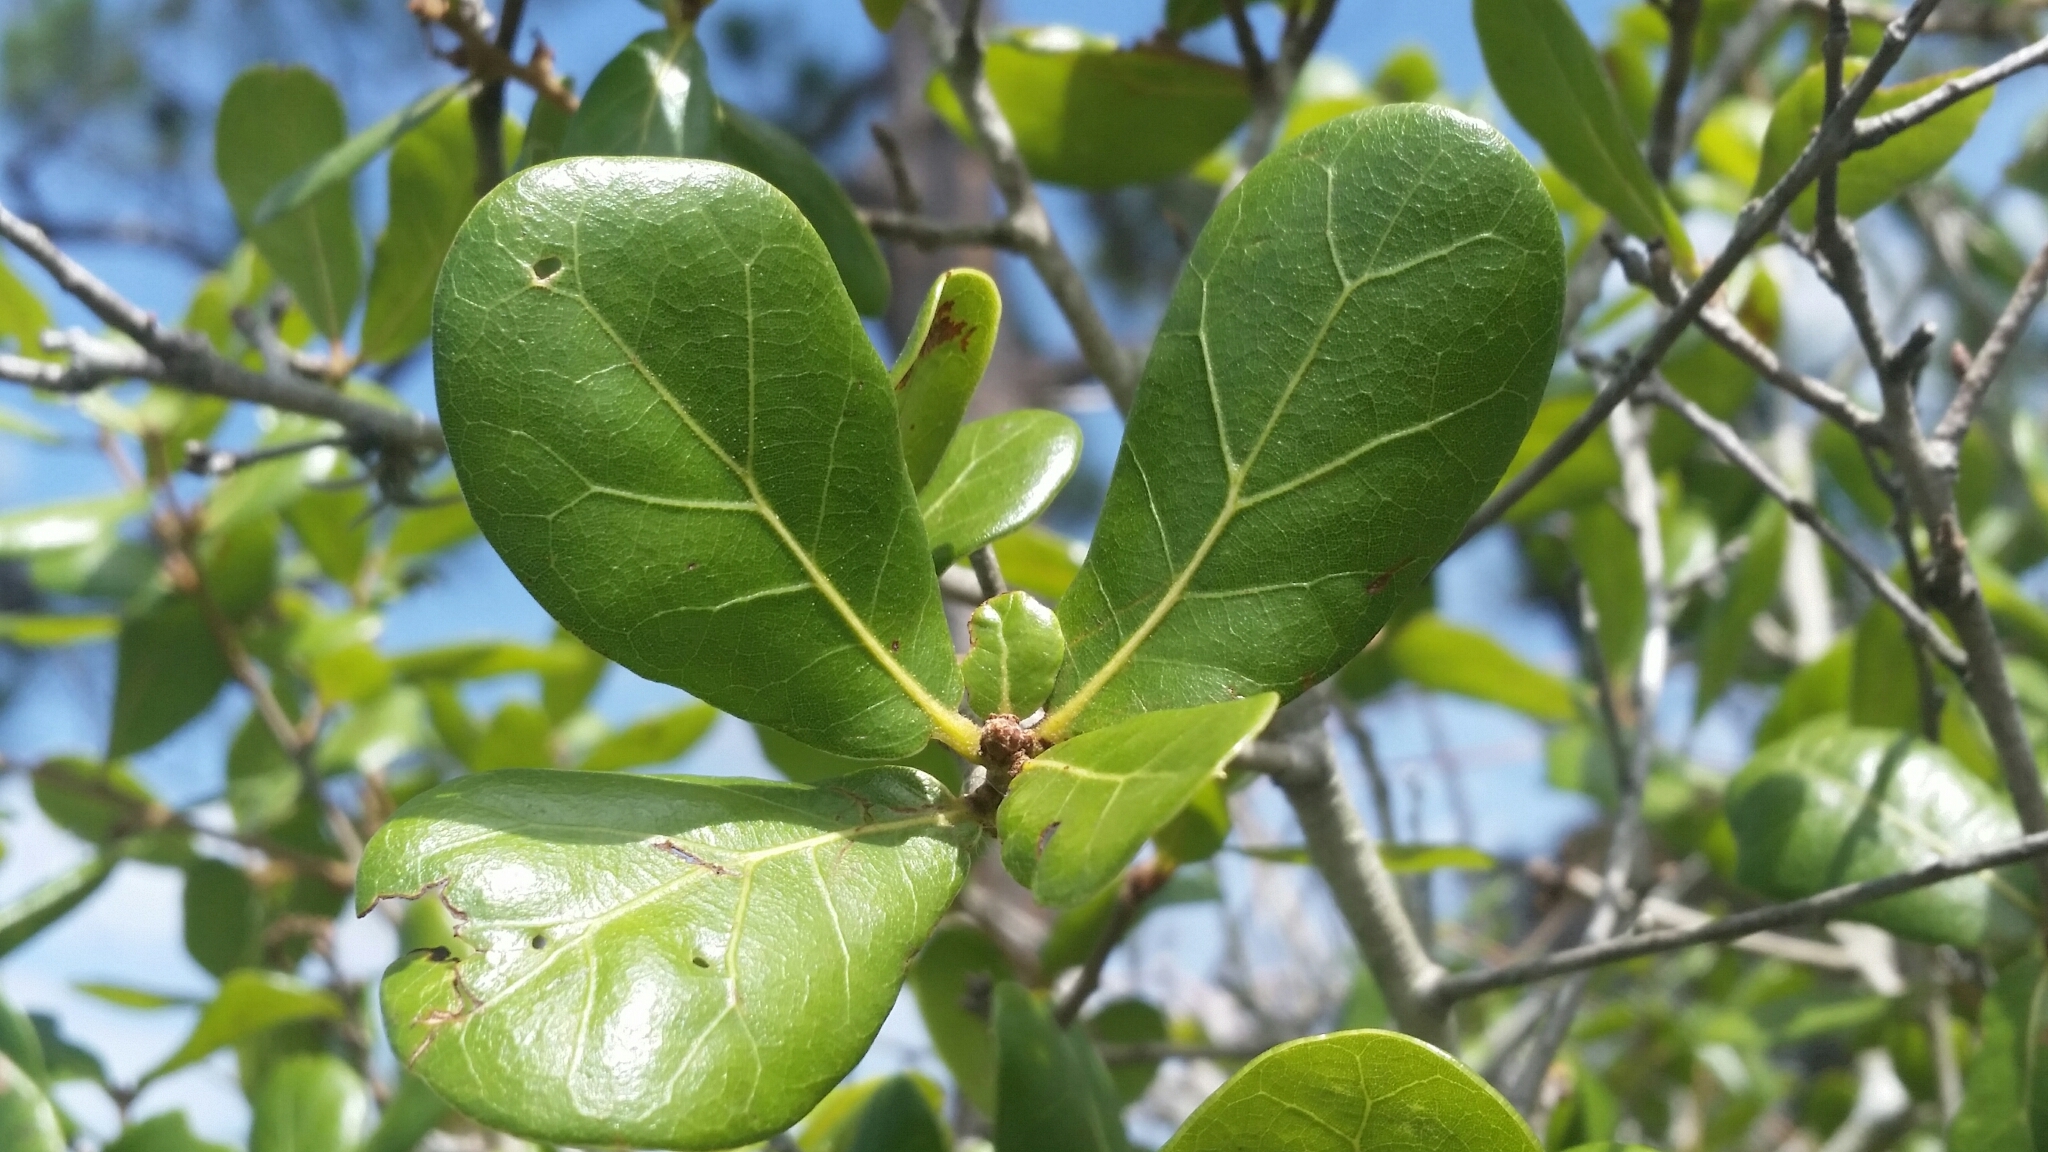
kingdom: Plantae
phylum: Tracheophyta
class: Magnoliopsida
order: Fagales
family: Fagaceae
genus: Quercus
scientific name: Quercus myrtifolia
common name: Myrtle oak
